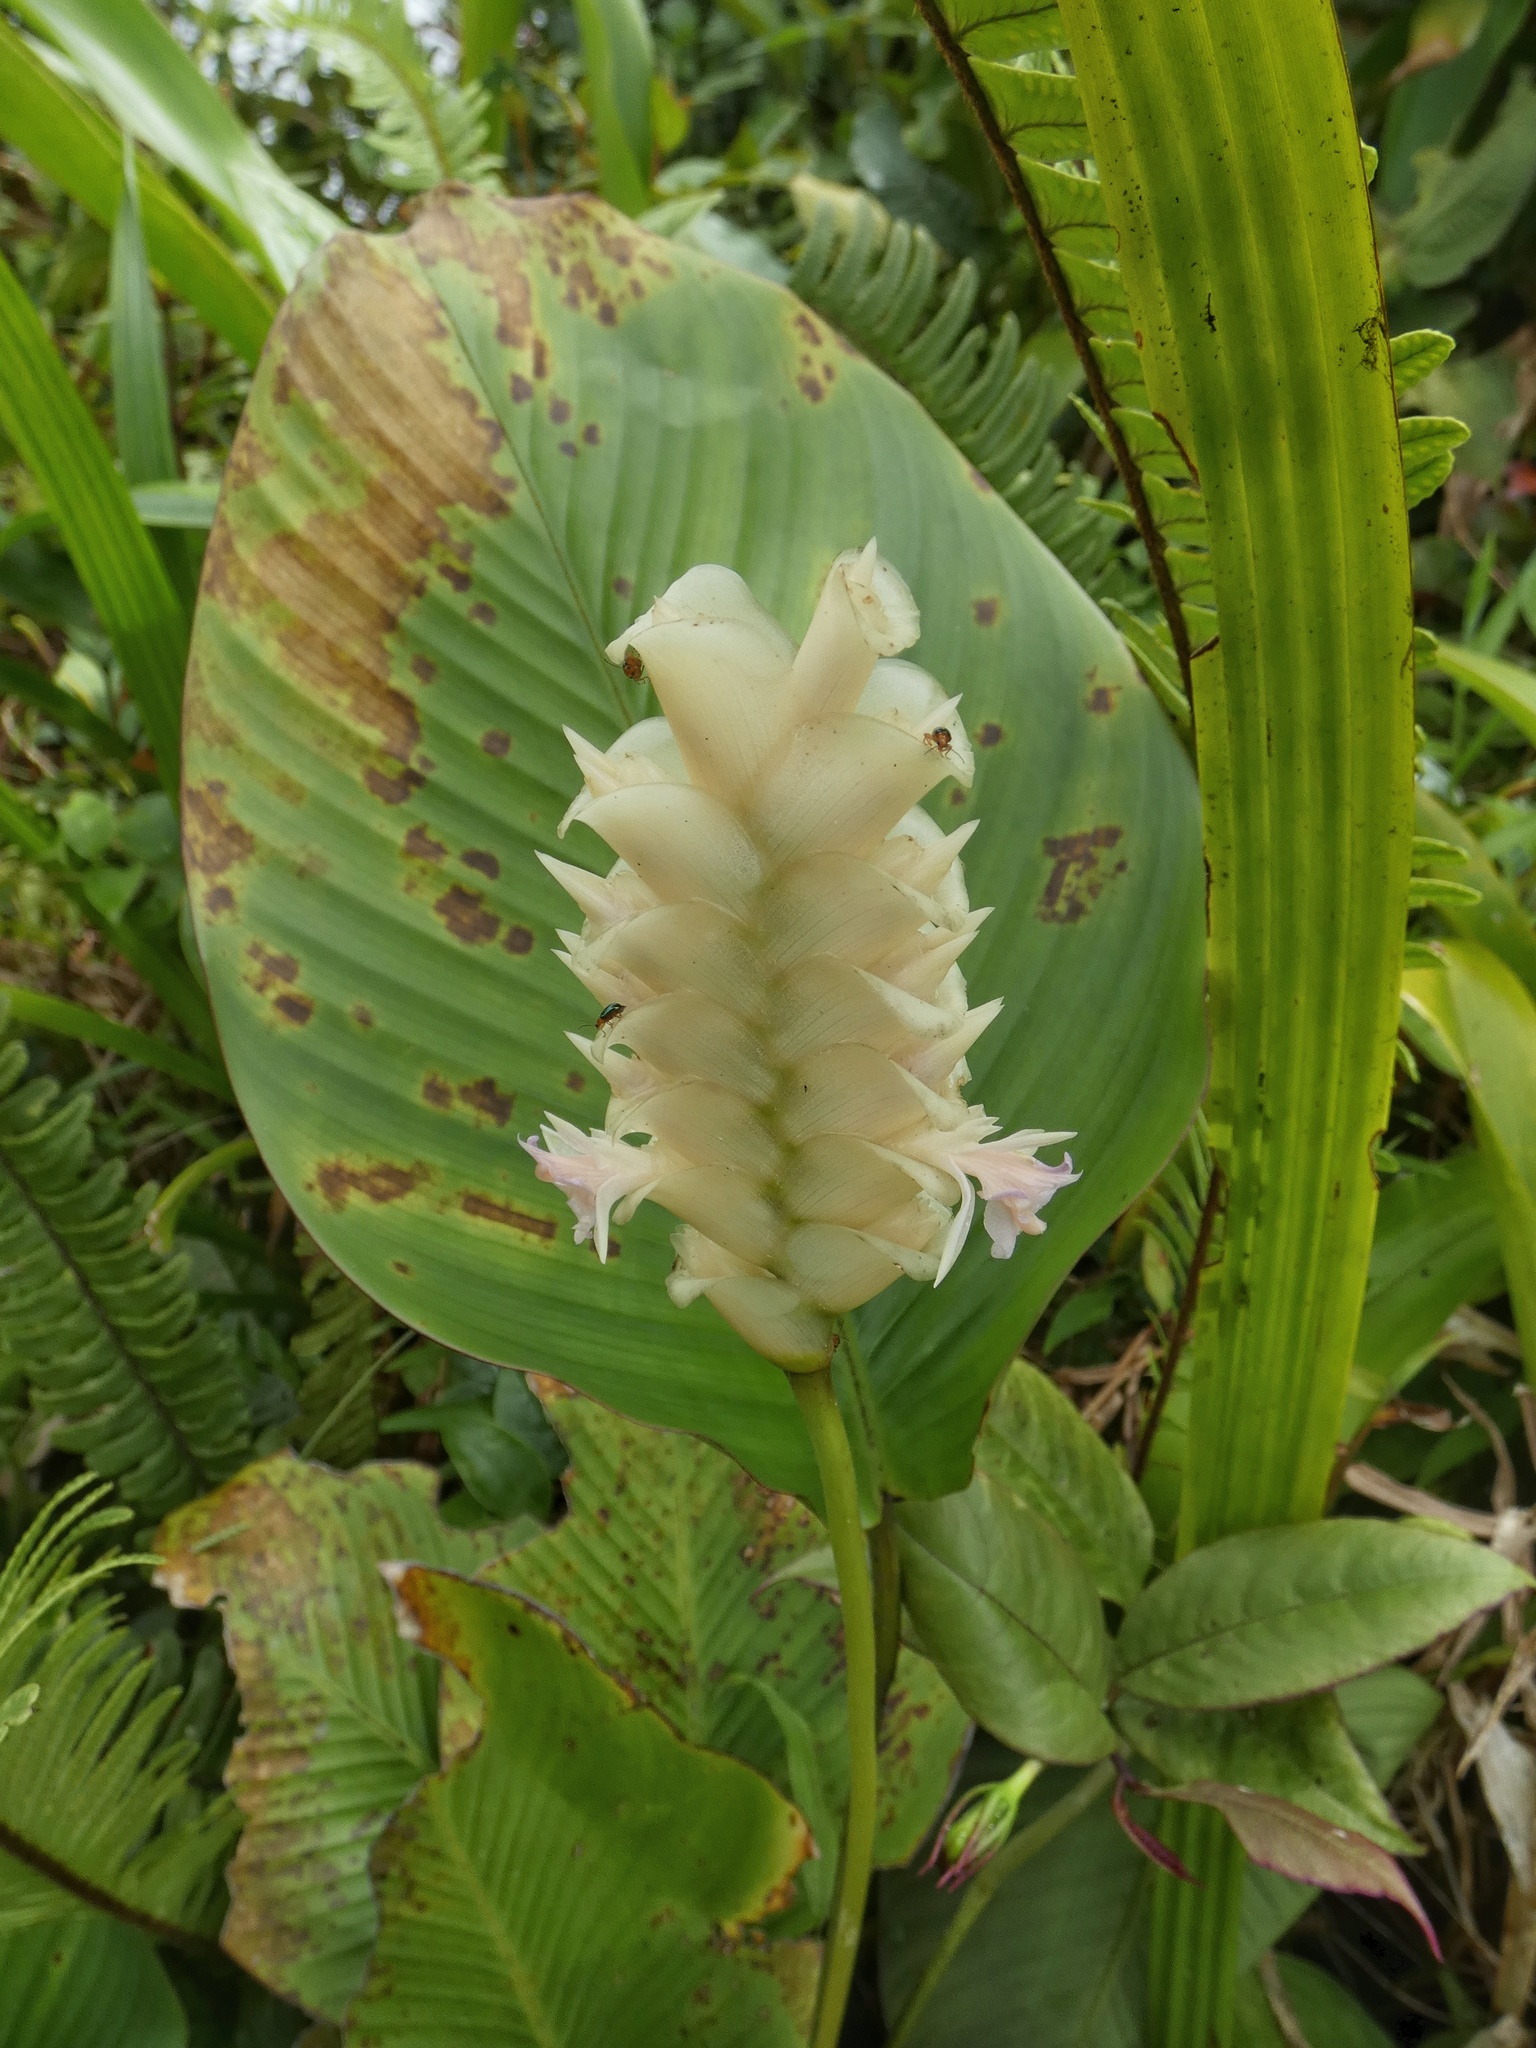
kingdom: Plantae
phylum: Tracheophyta
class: Liliopsida
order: Zingiberales
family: Marantaceae
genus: Calathea
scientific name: Calathea fredgandersii
